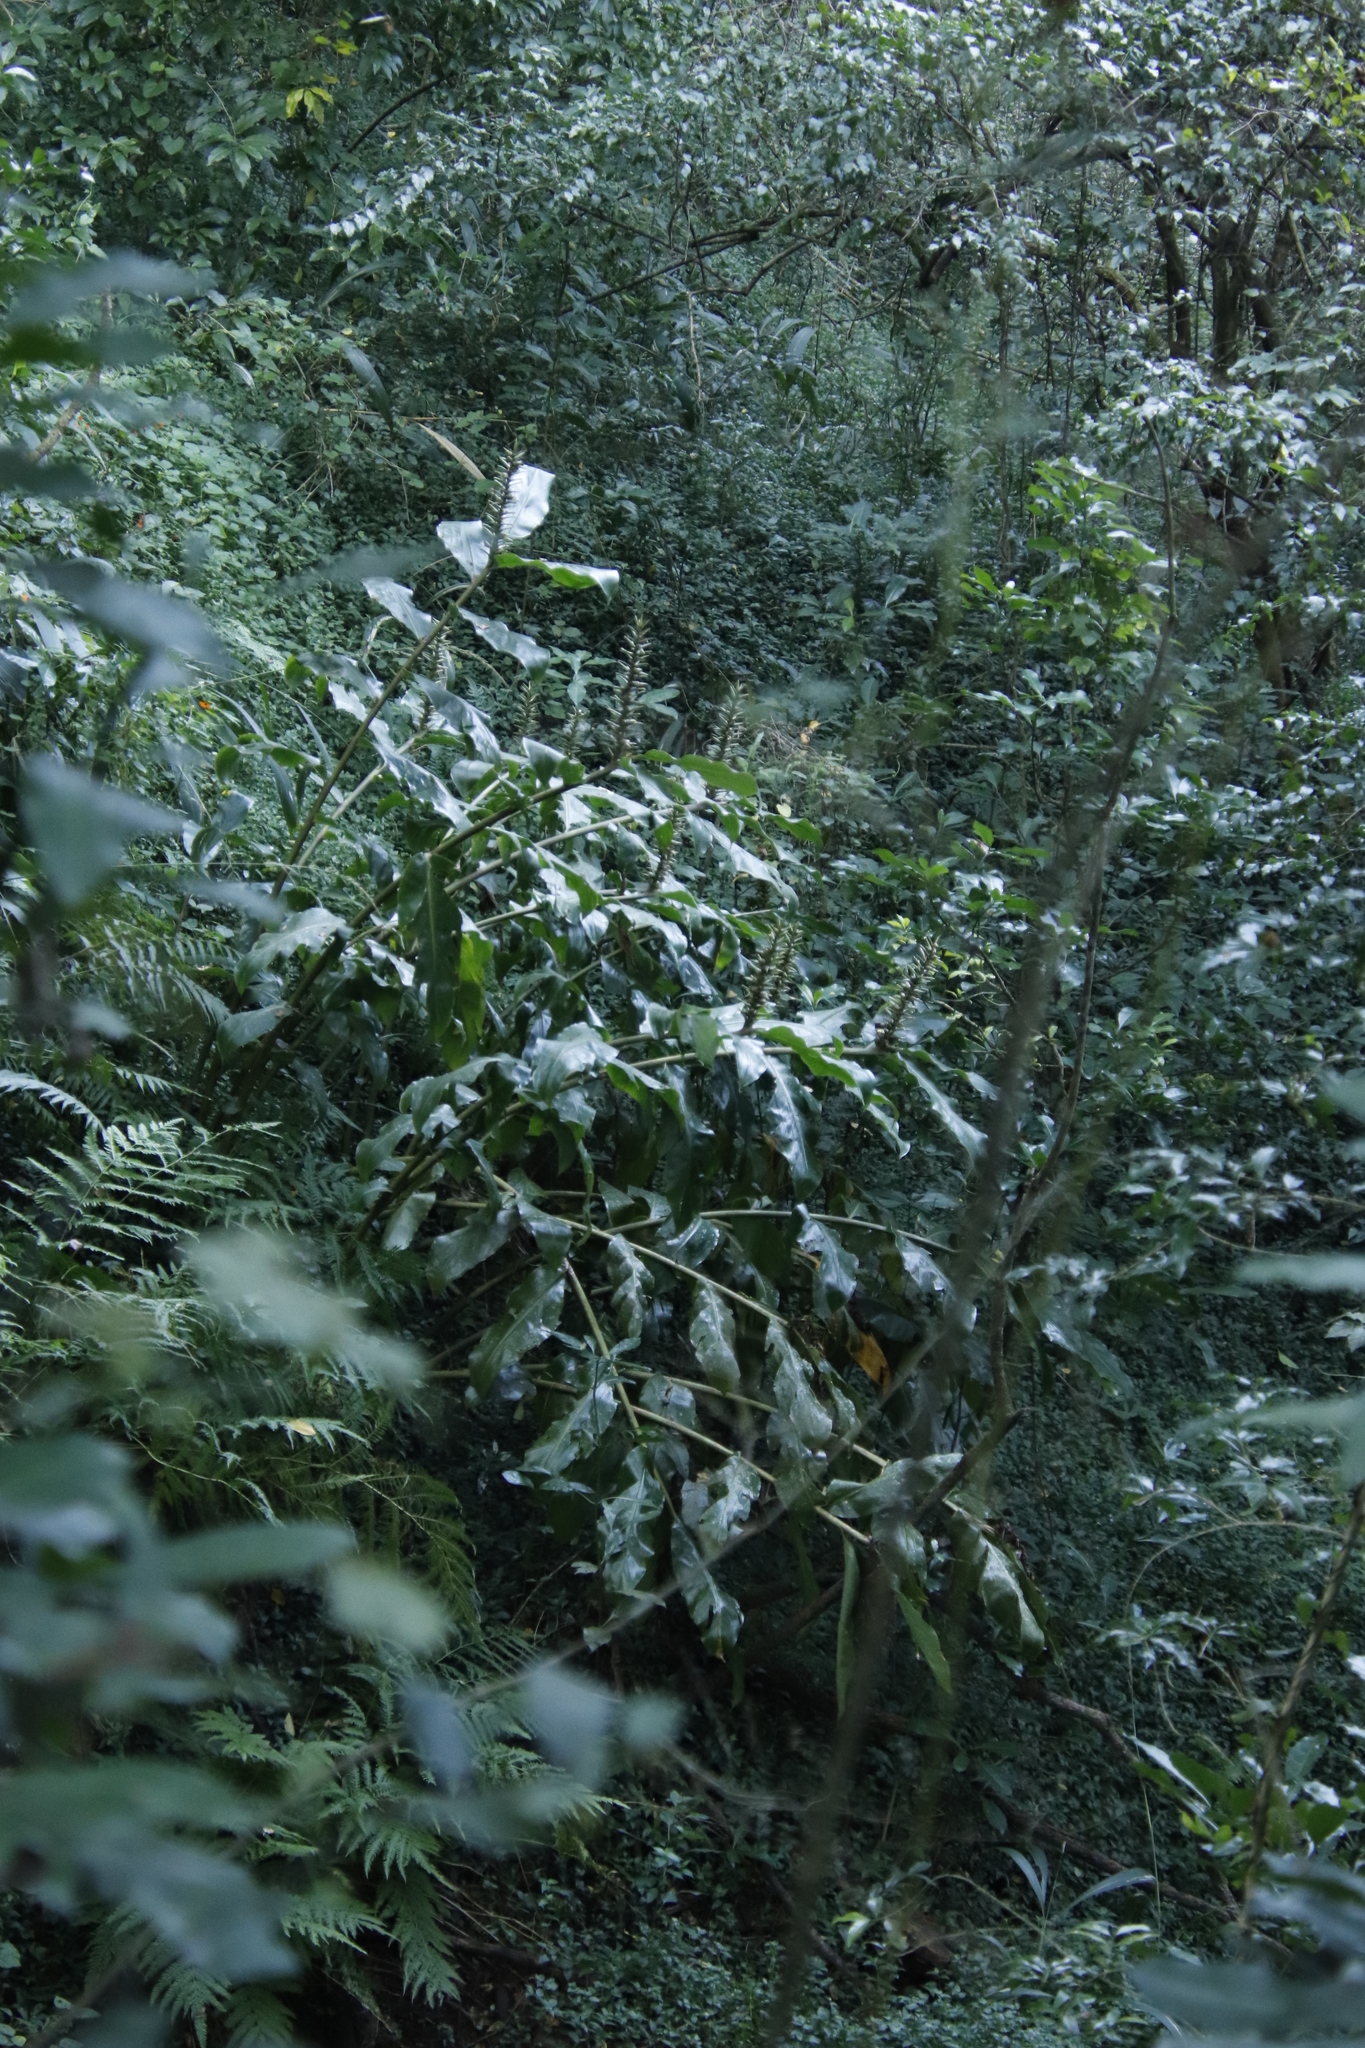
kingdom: Plantae
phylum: Tracheophyta
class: Liliopsida
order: Zingiberales
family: Zingiberaceae
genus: Hedychium
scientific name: Hedychium gardnerianum
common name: Himalayan ginger
